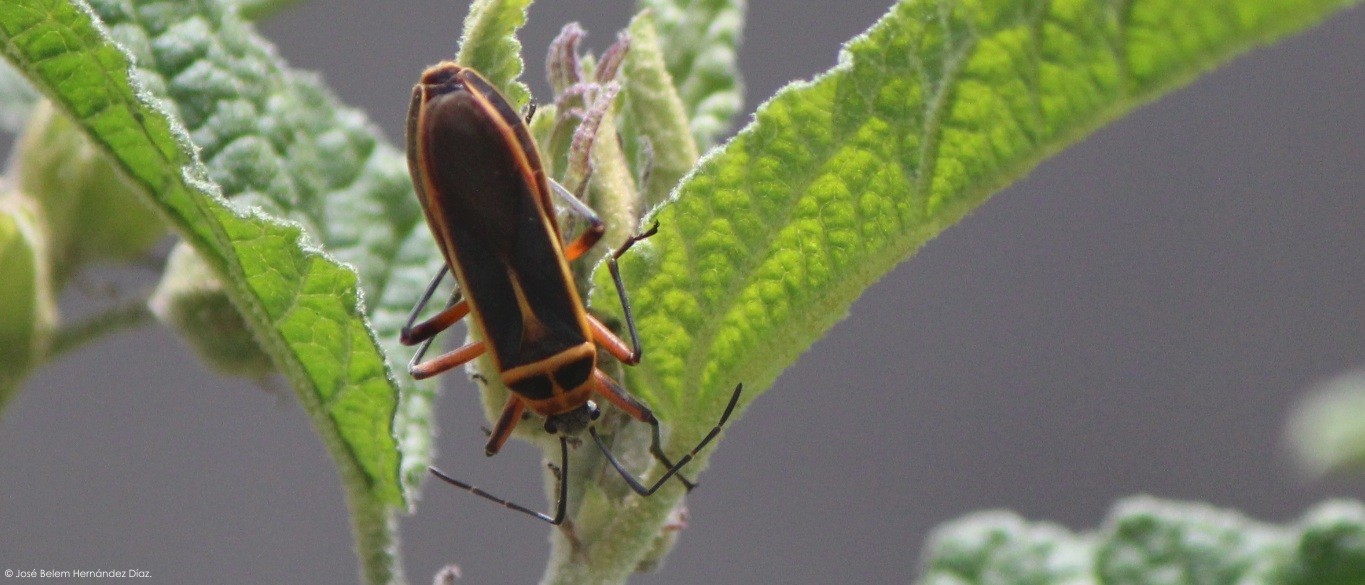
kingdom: Animalia
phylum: Arthropoda
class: Insecta
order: Hemiptera
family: Largidae
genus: Stenomacra
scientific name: Stenomacra marginella
